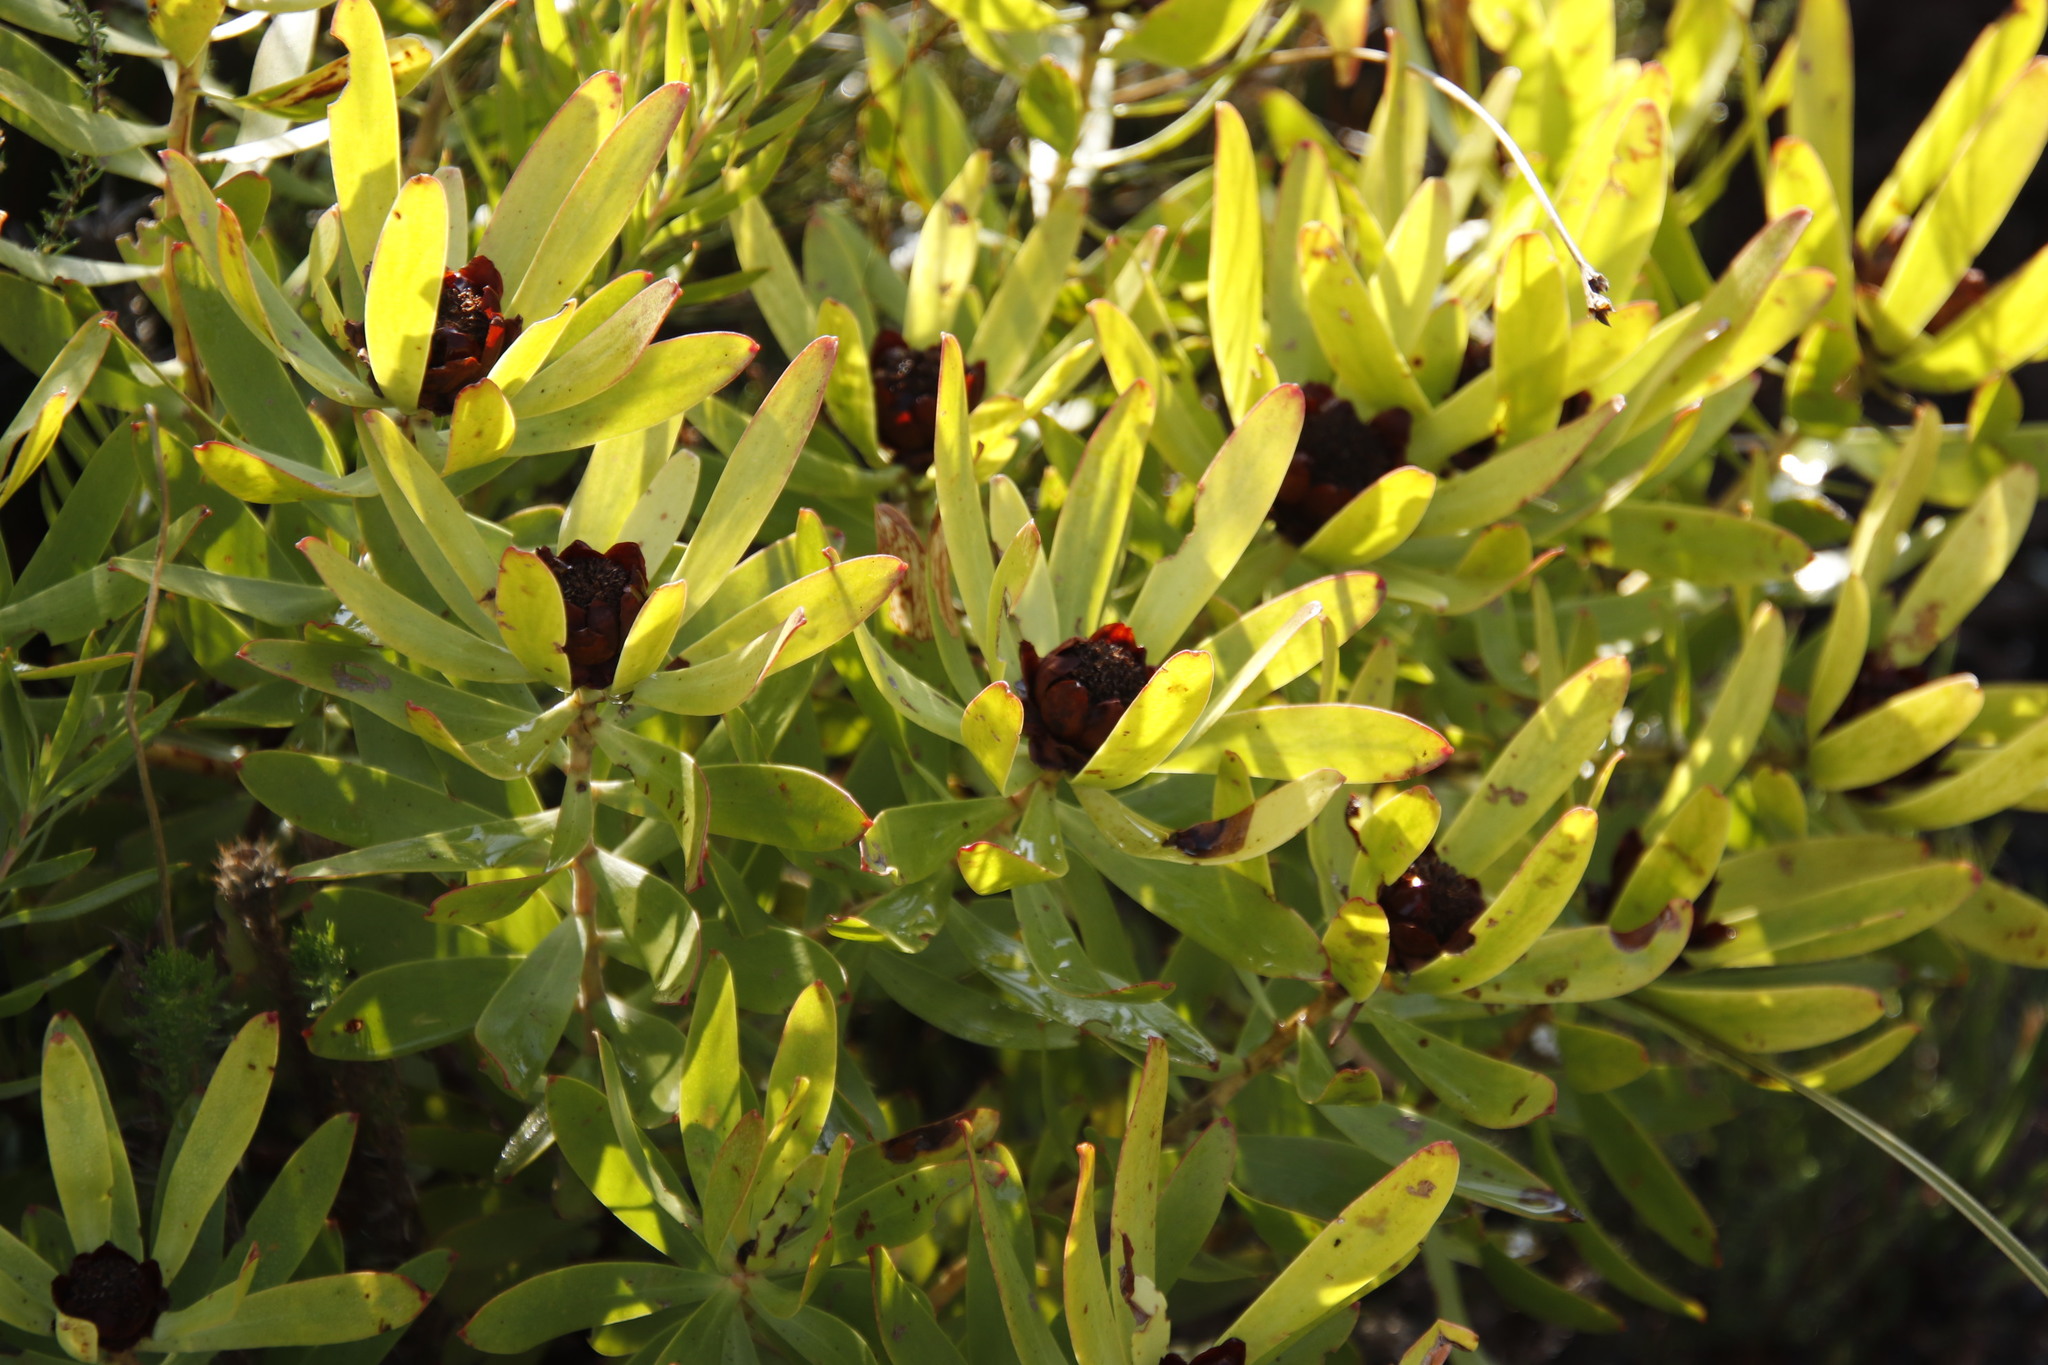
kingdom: Plantae
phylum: Tracheophyta
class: Magnoliopsida
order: Proteales
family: Proteaceae
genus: Leucadendron
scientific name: Leucadendron microcephalum
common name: Oilbract conebush
